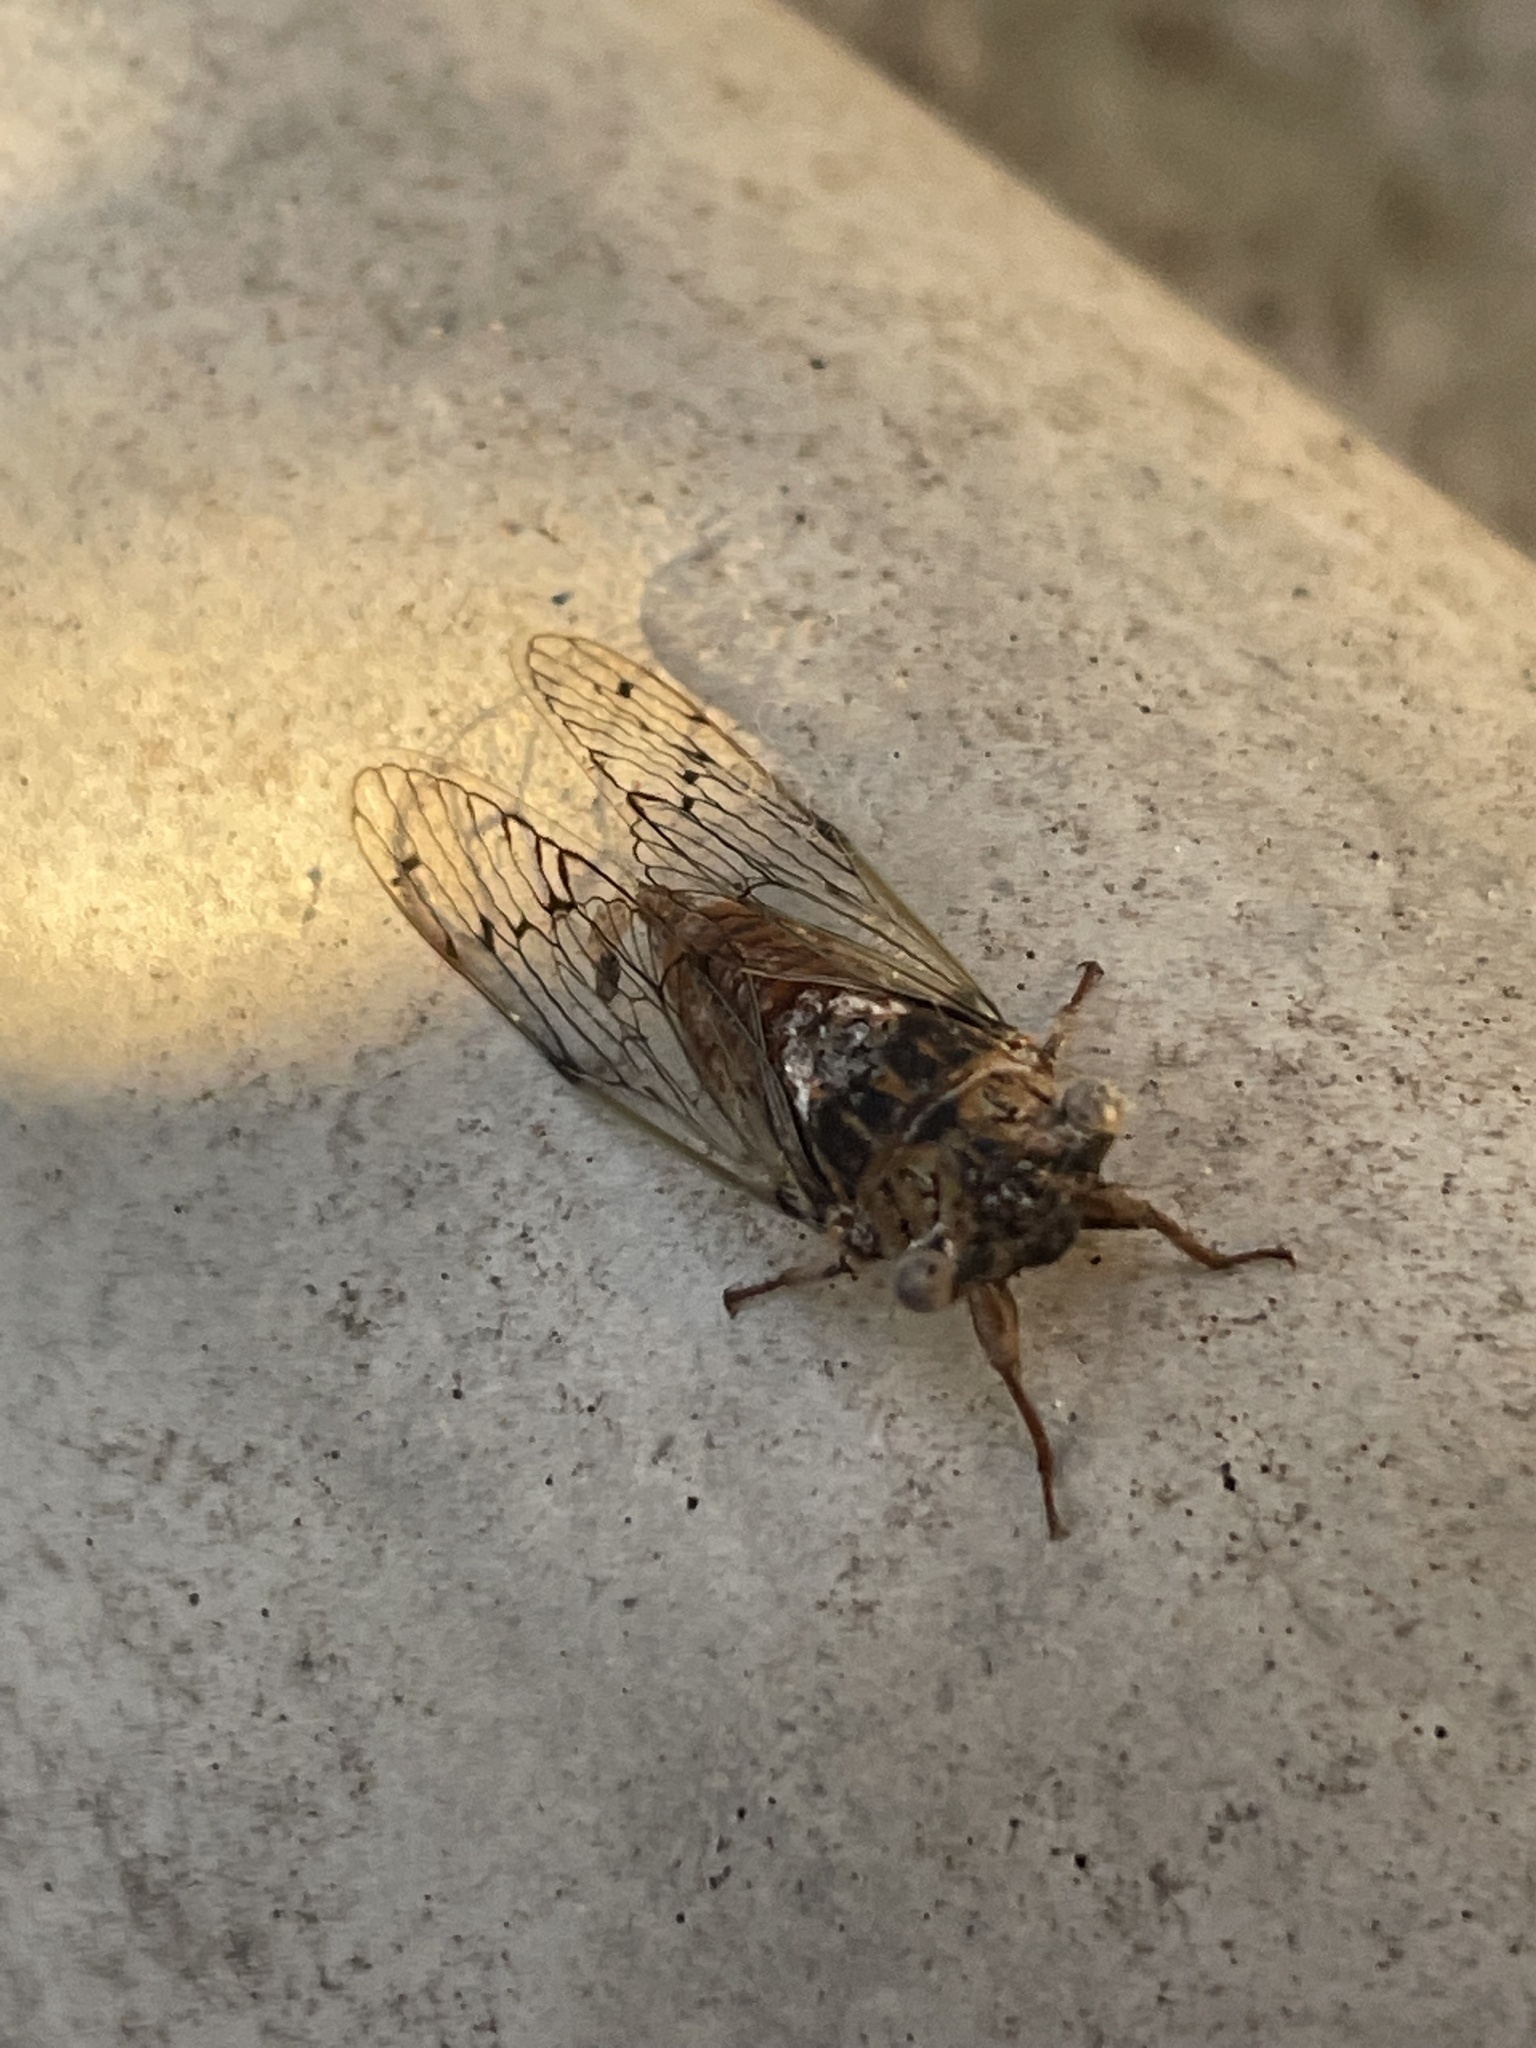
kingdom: Animalia
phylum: Arthropoda
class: Insecta
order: Hemiptera
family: Cicadidae
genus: Pacarina
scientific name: Pacarina puella
